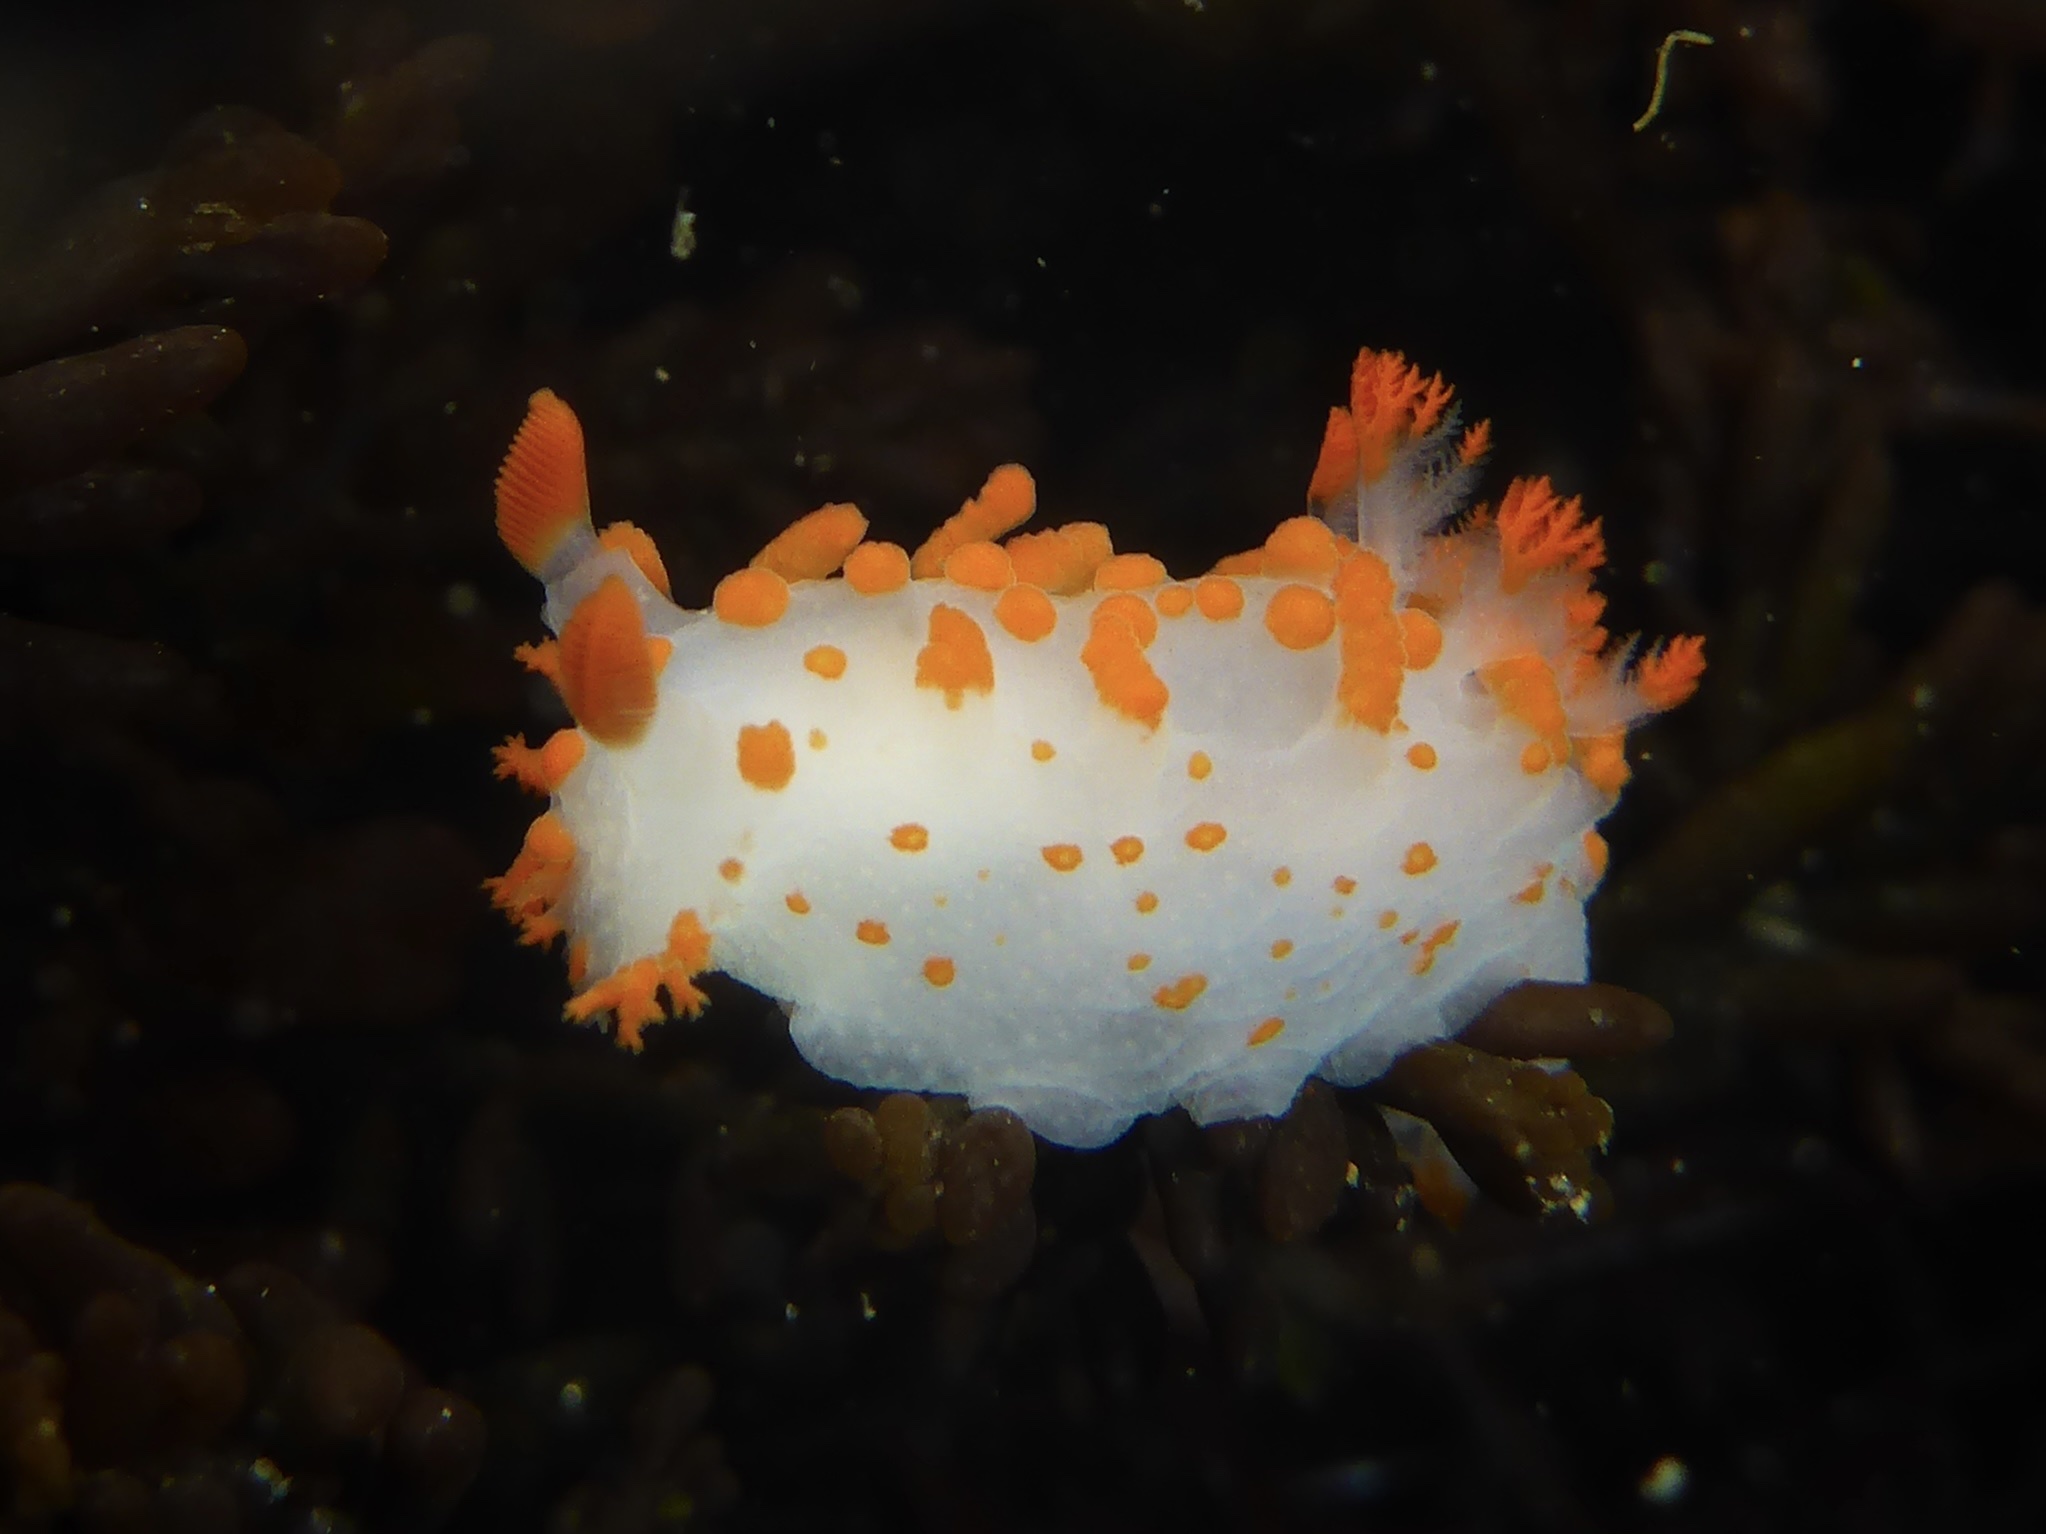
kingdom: Animalia
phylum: Mollusca
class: Gastropoda
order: Nudibranchia
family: Polyceridae
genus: Triopha
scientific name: Triopha catalinae
